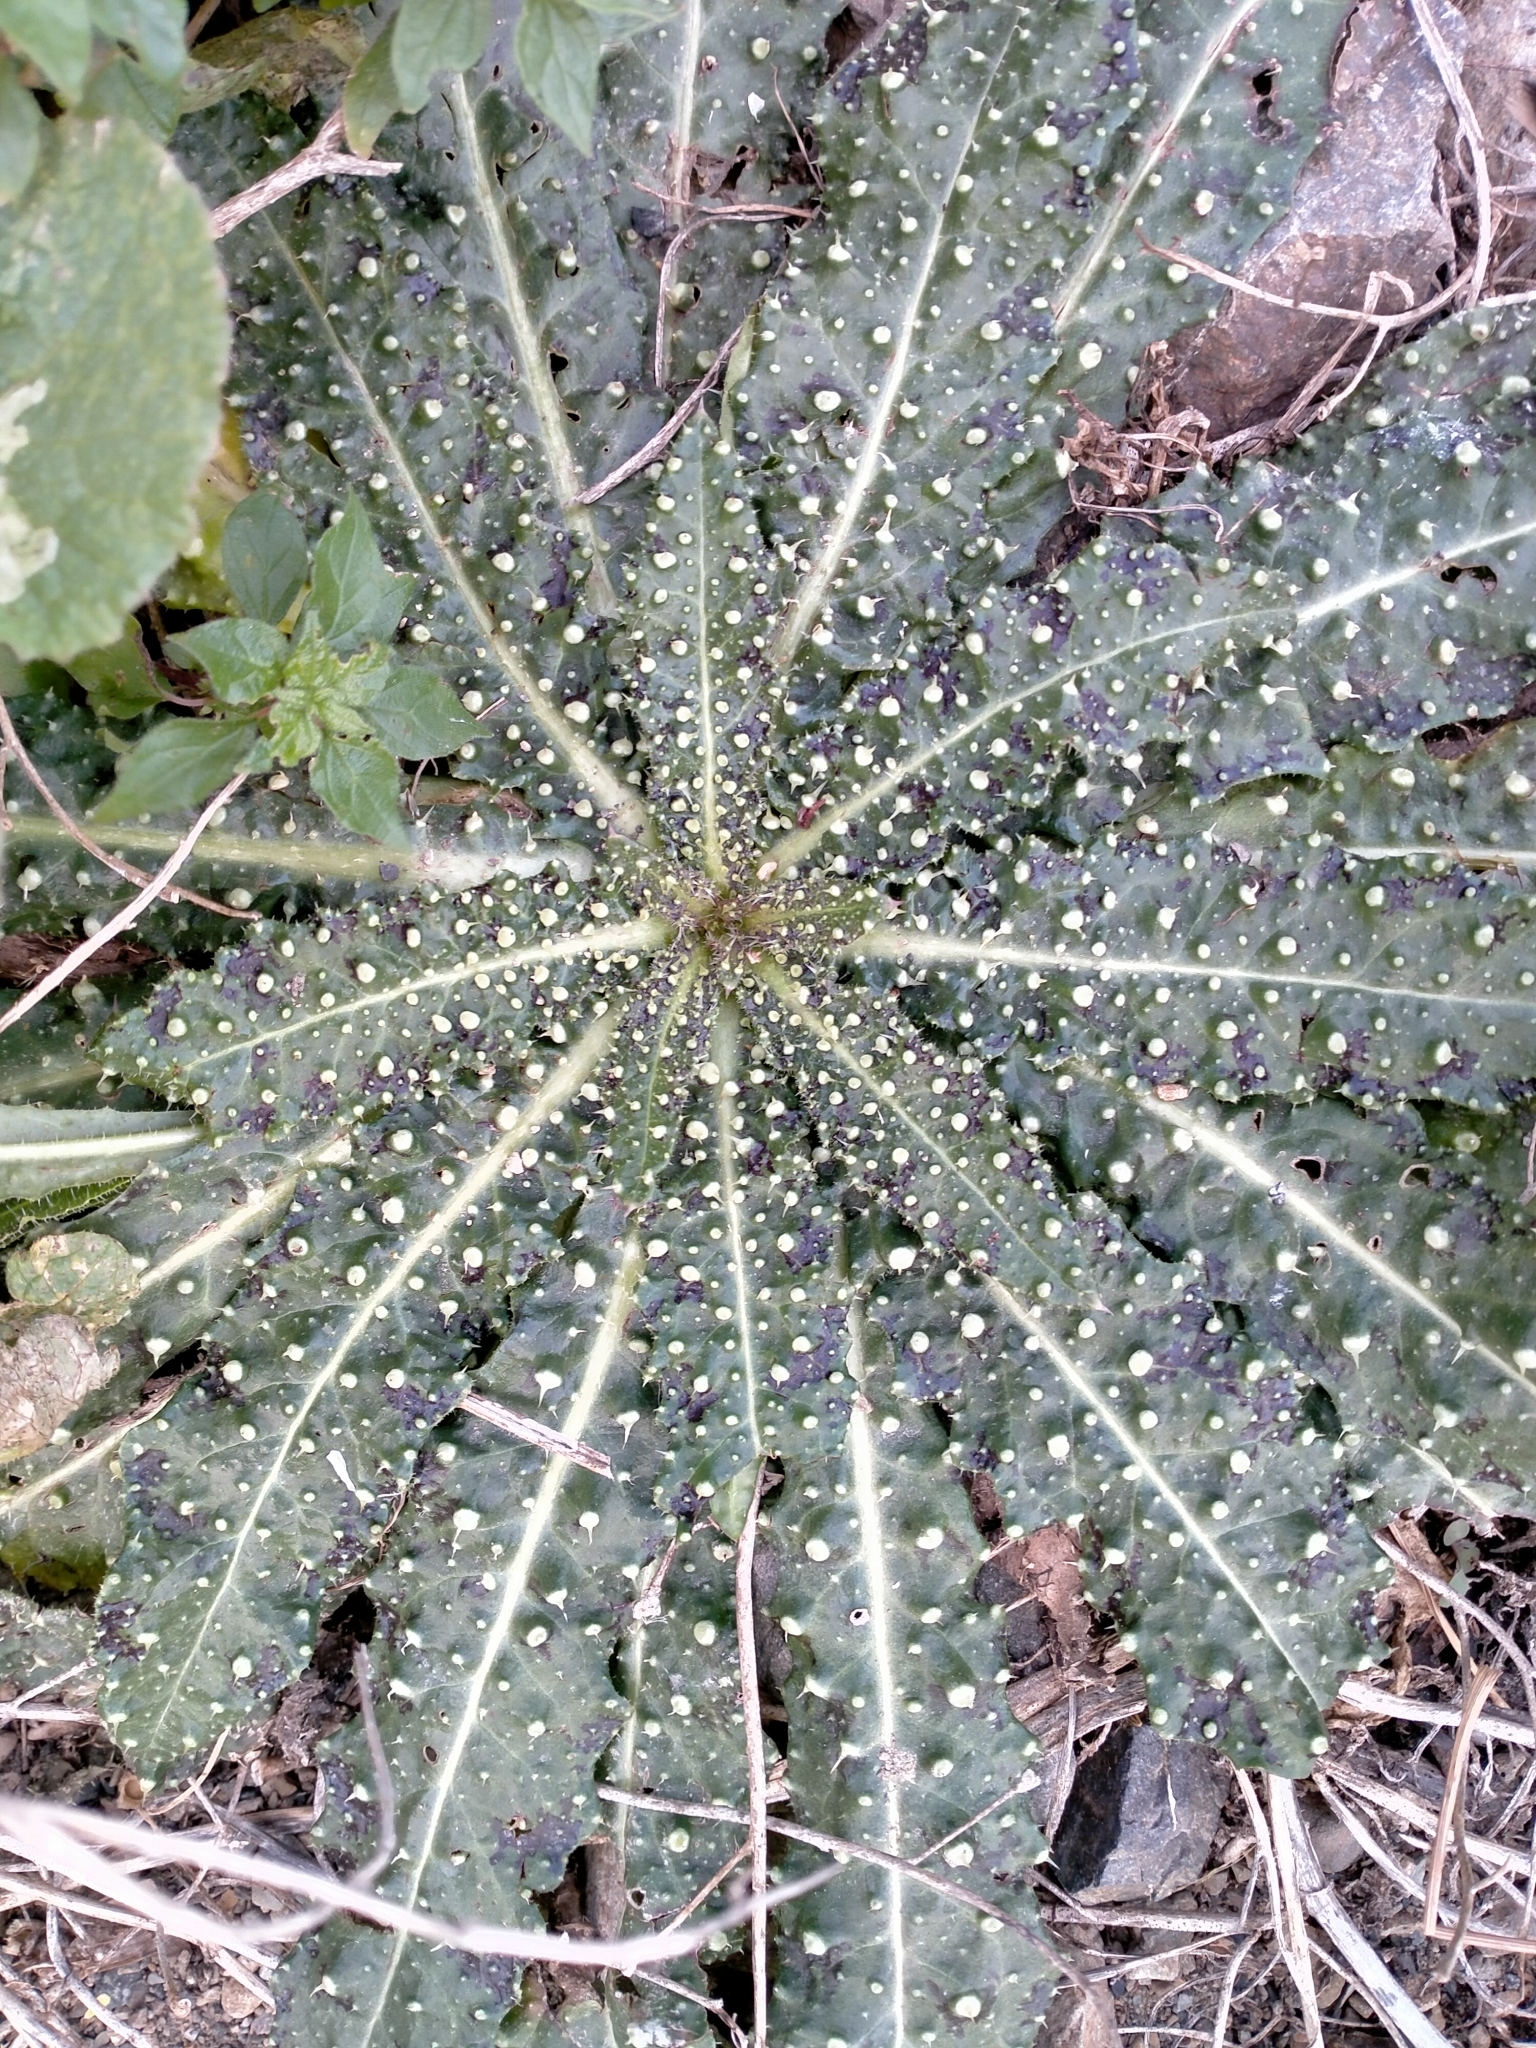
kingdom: Plantae
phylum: Tracheophyta
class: Magnoliopsida
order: Asterales
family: Asteraceae
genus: Helminthotheca
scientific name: Helminthotheca echioides
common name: Ox-tongue
